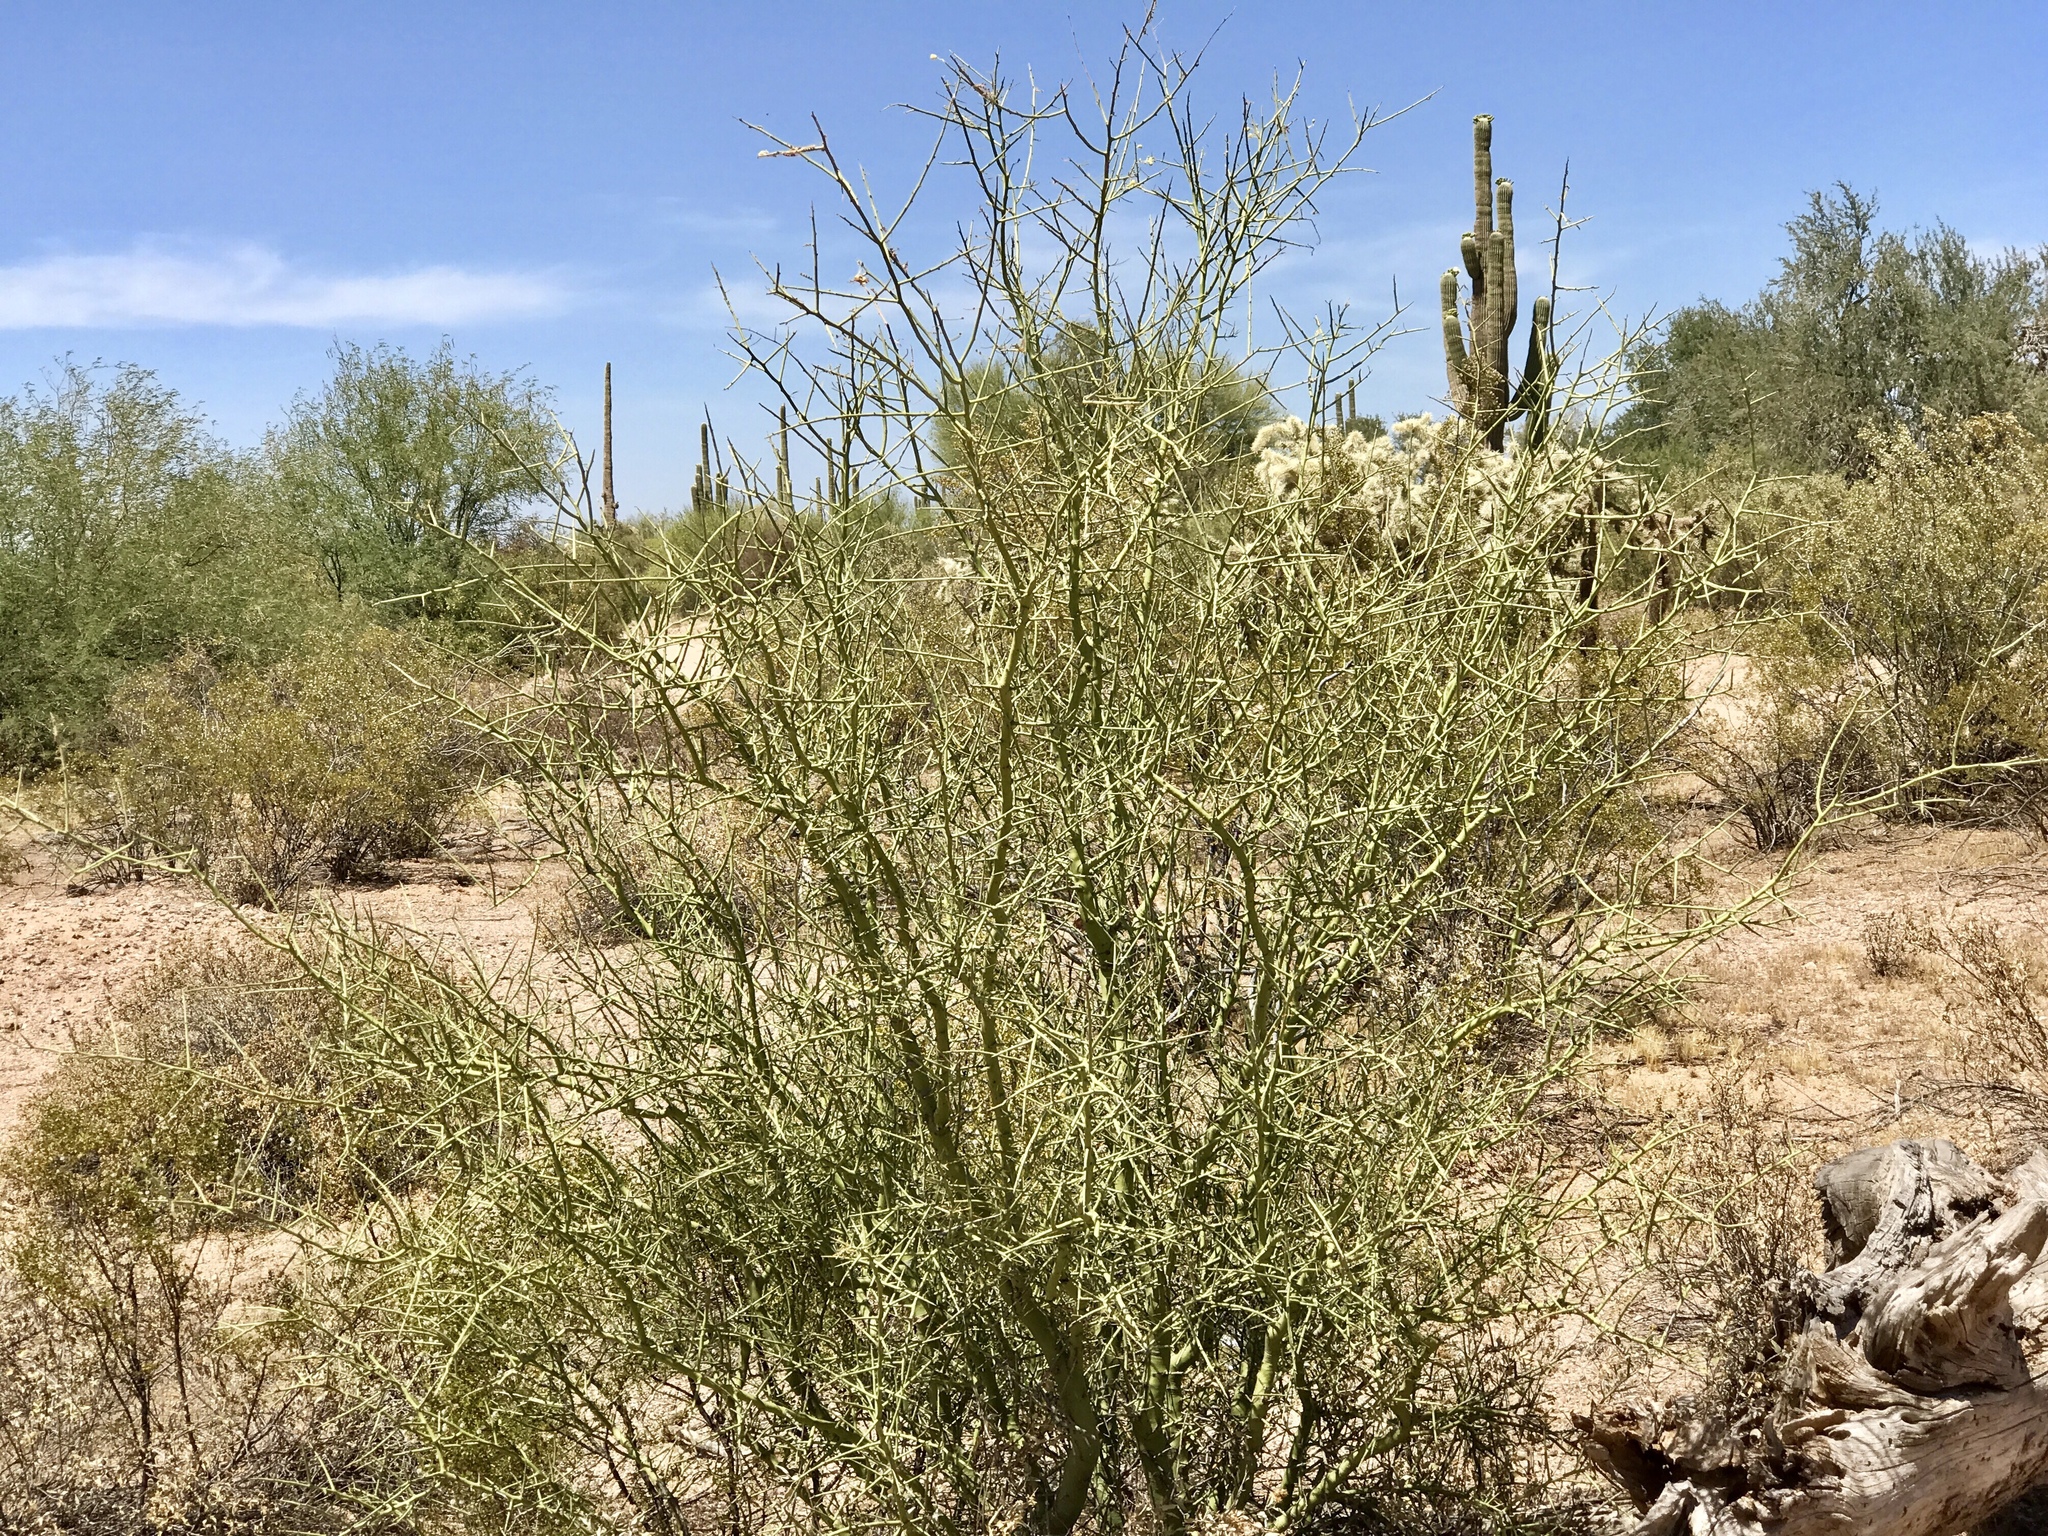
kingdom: Plantae
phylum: Tracheophyta
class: Magnoliopsida
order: Fabales
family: Fabaceae
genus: Parkinsonia
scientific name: Parkinsonia microphylla
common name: Yellow paloverde
